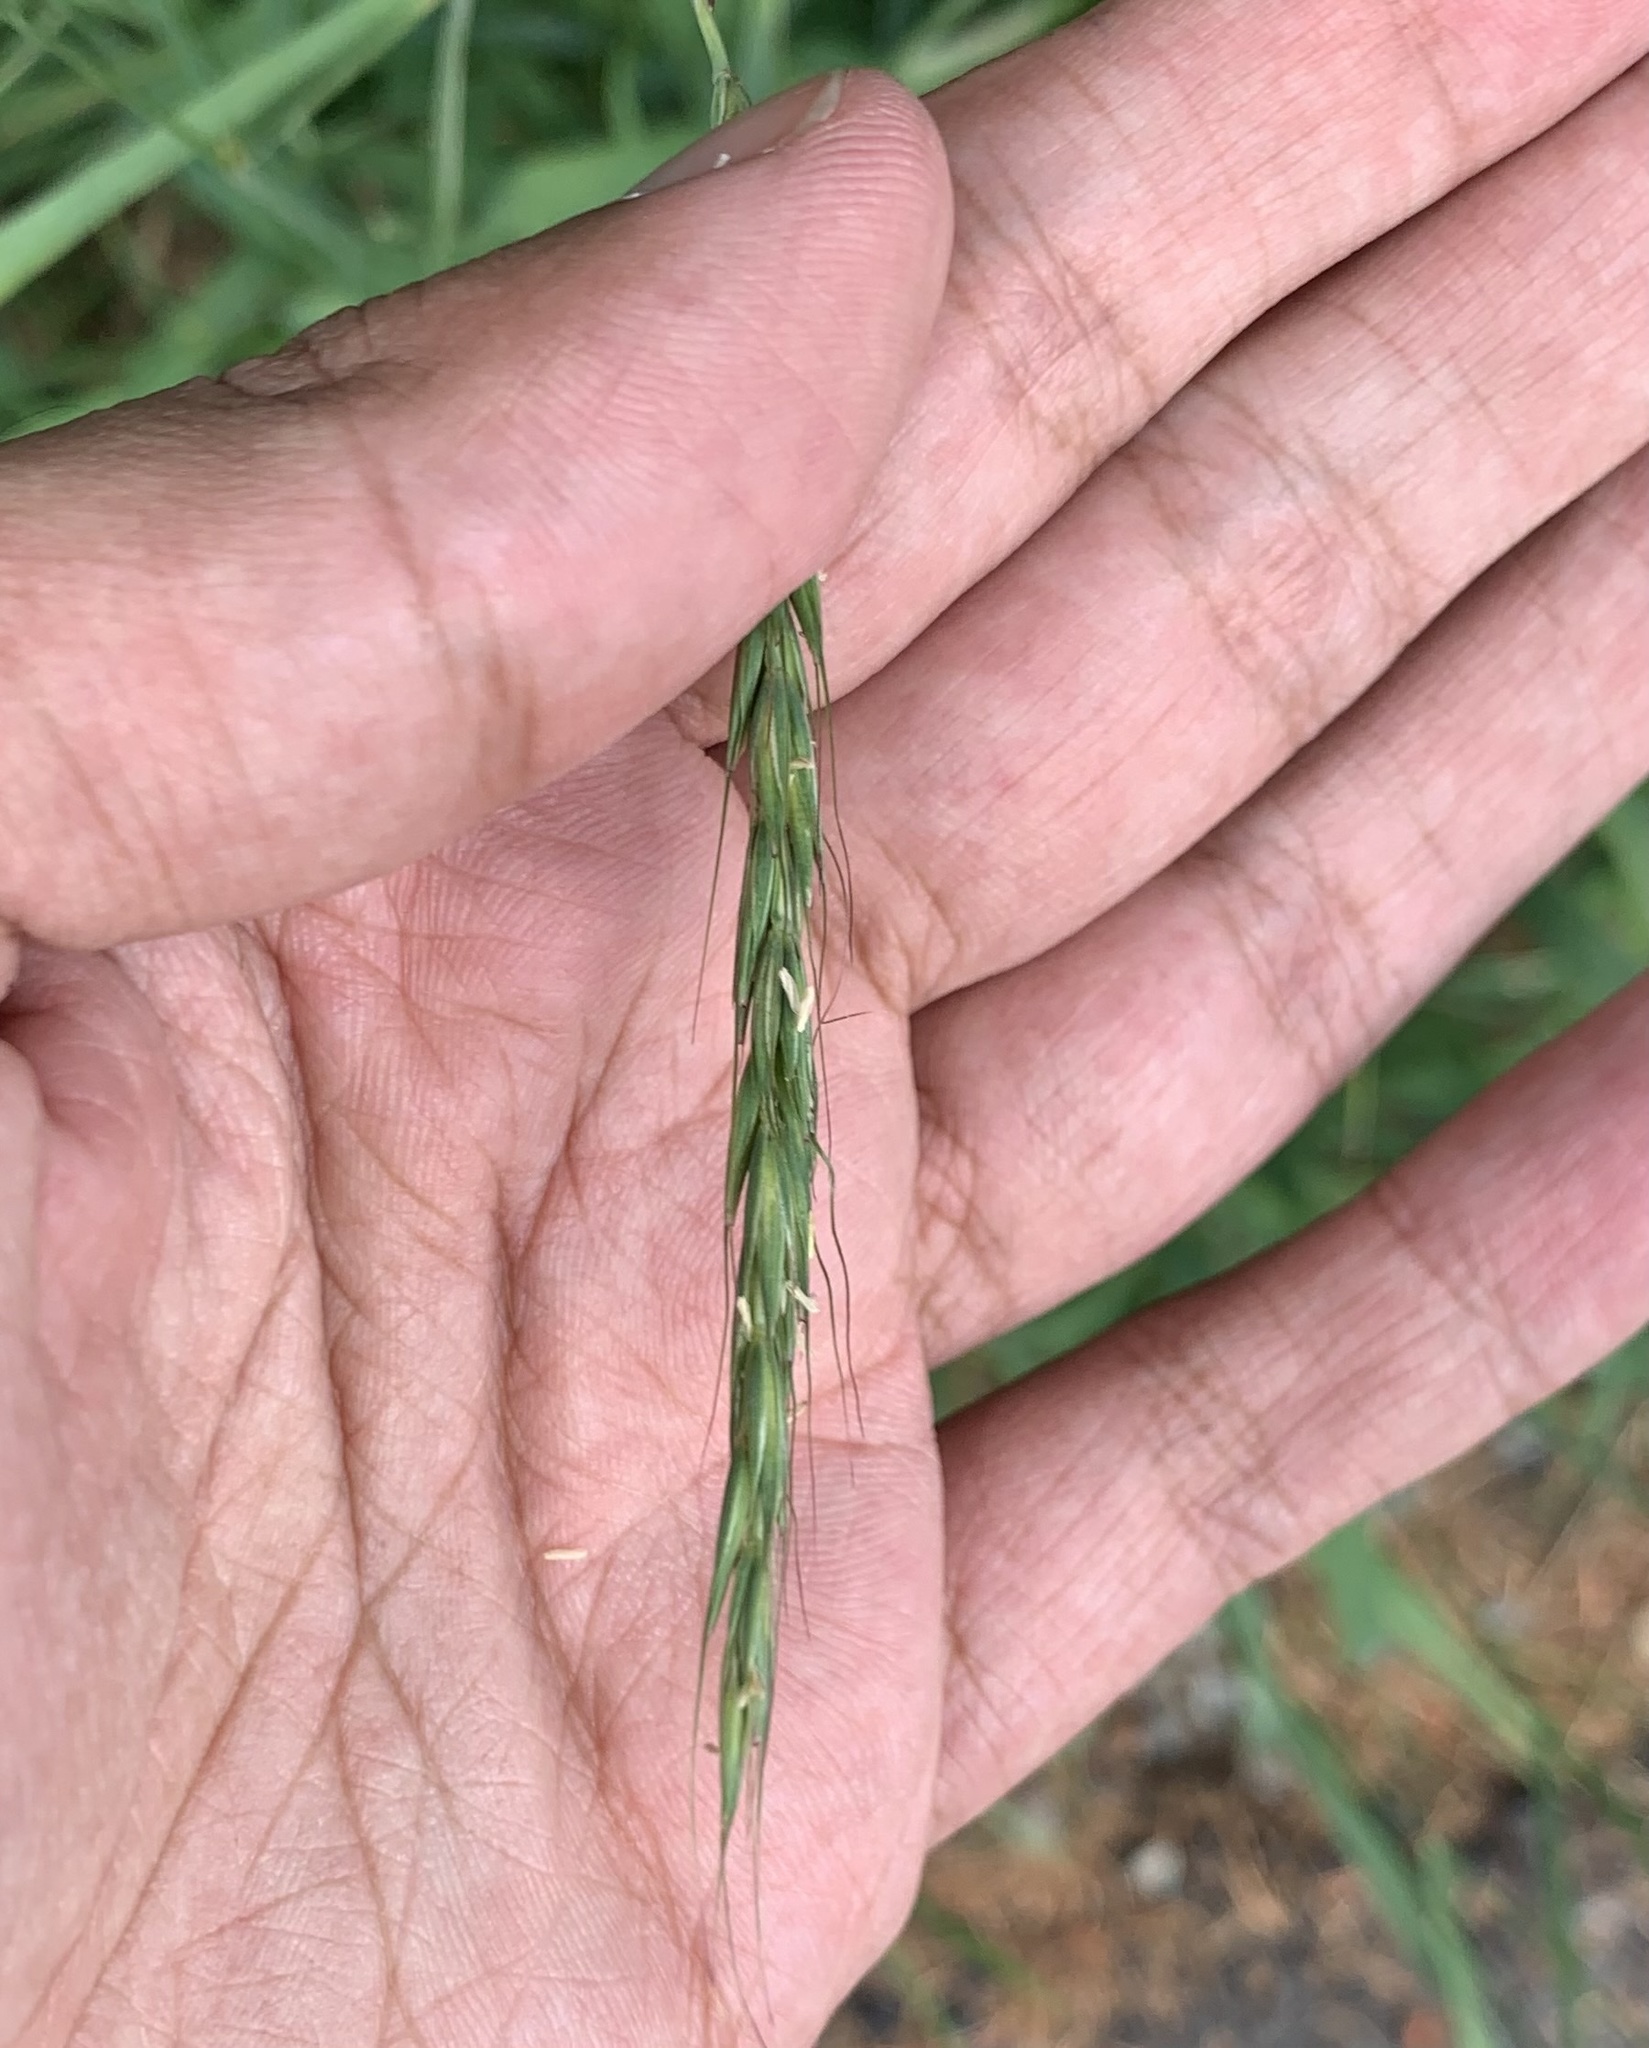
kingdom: Plantae
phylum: Tracheophyta
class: Liliopsida
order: Poales
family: Poaceae
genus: Elymus
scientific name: Elymus glaucus
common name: Blue wild rye
